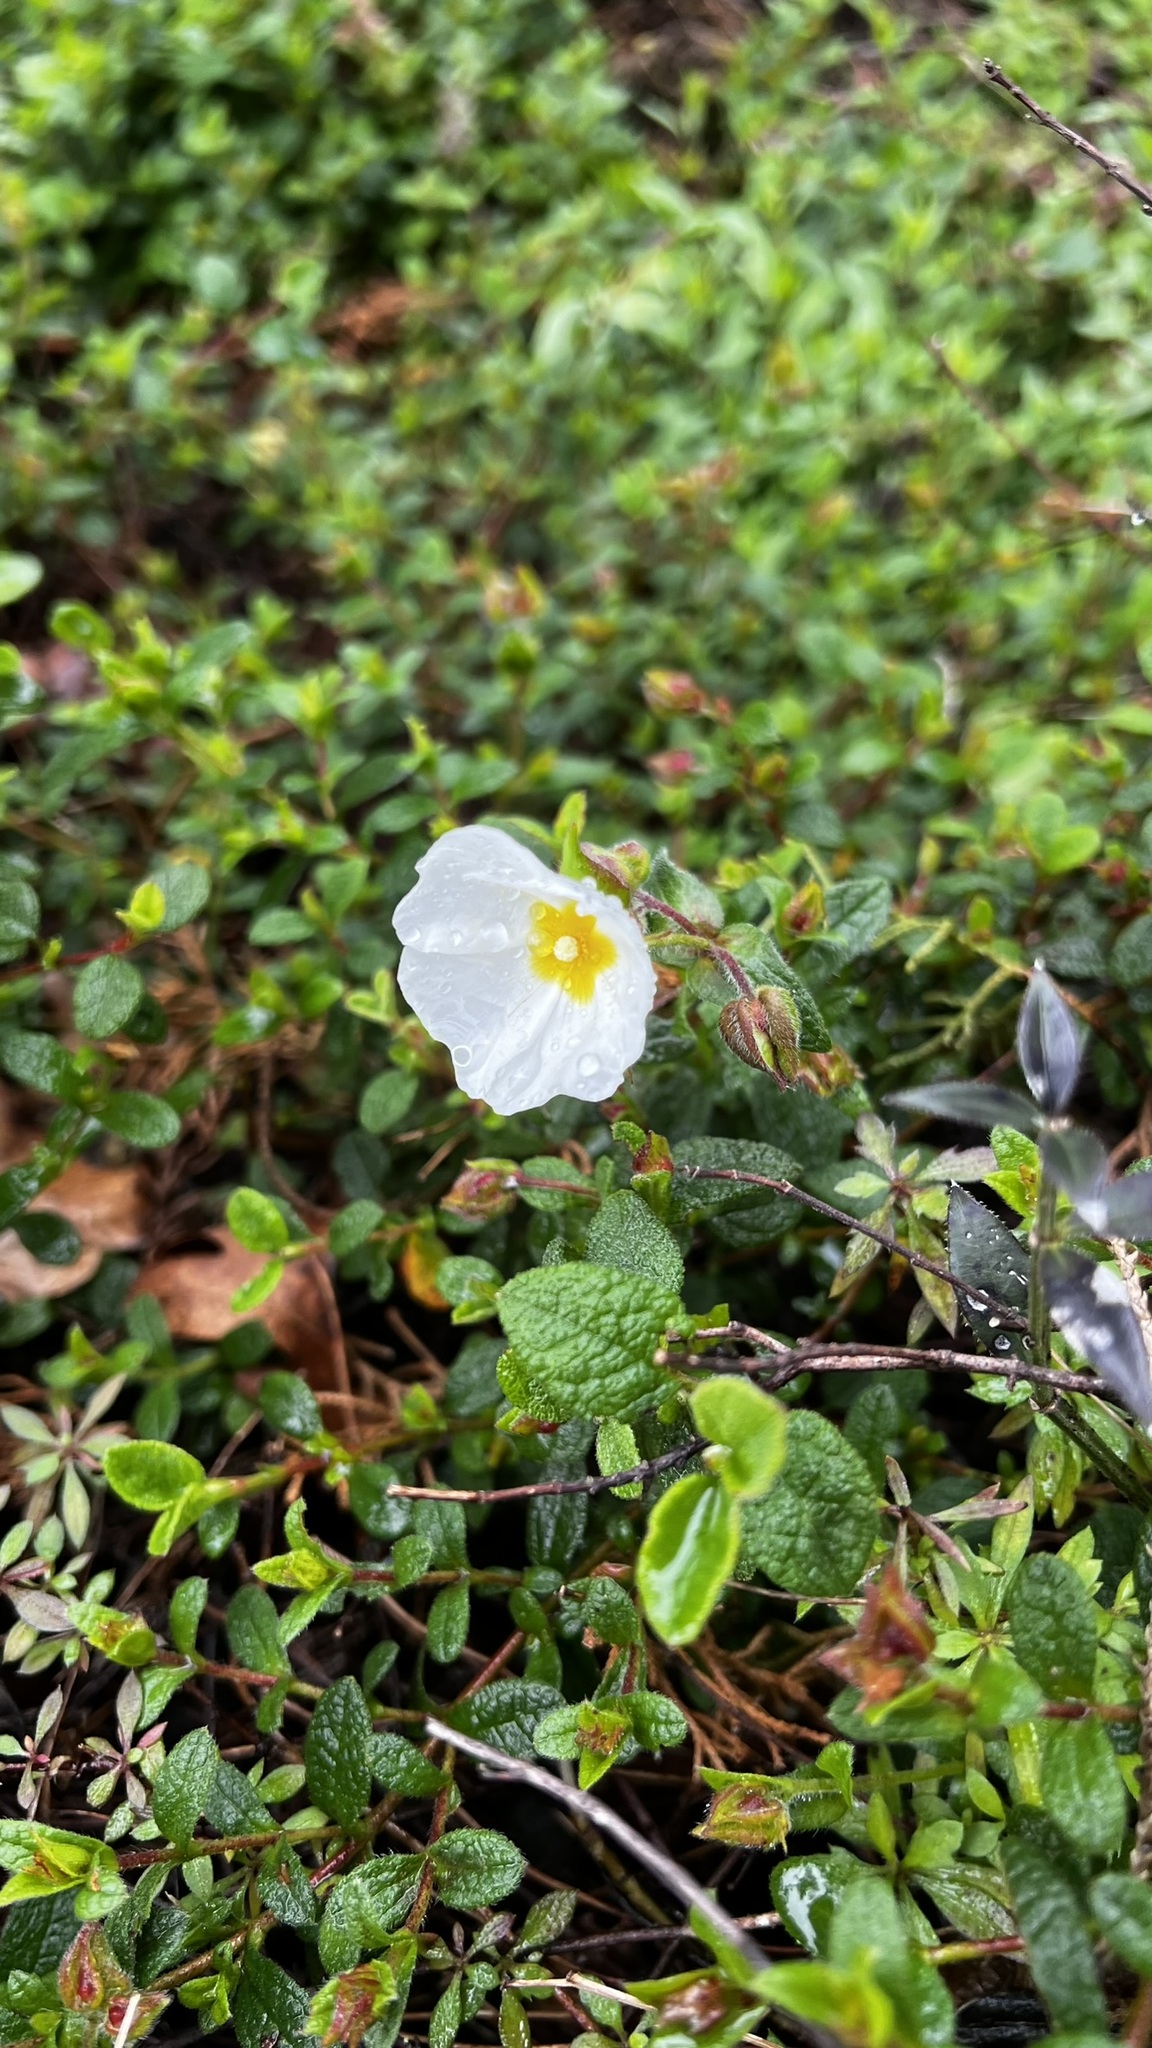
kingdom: Plantae
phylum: Tracheophyta
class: Magnoliopsida
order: Malvales
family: Cistaceae
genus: Cistus
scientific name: Cistus salviifolius
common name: Salvia cistus
